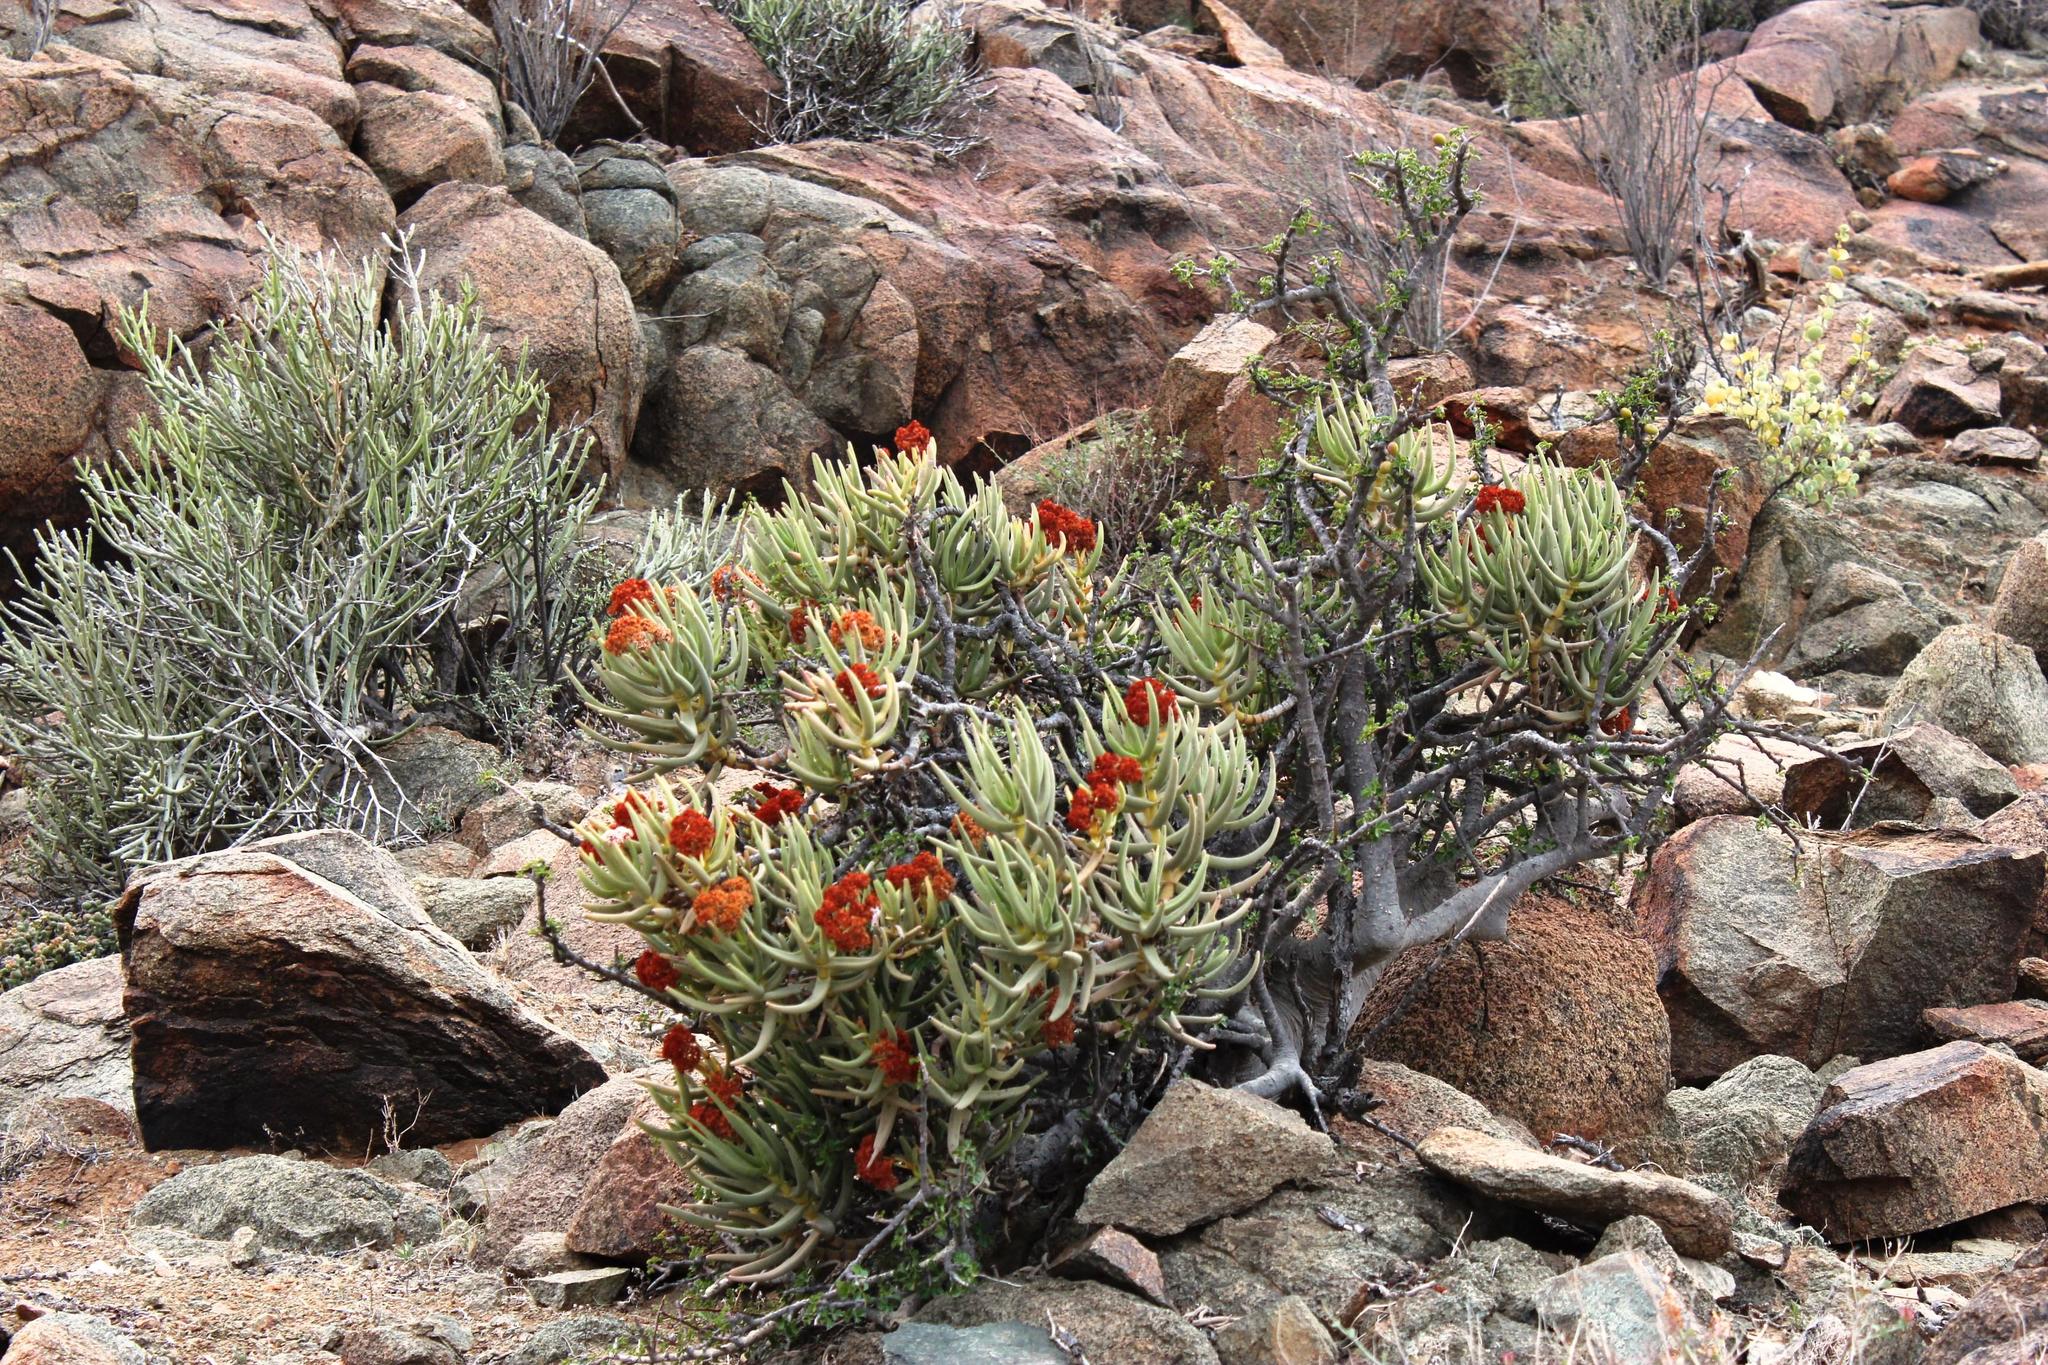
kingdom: Plantae
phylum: Tracheophyta
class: Magnoliopsida
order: Saxifragales
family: Crassulaceae
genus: Crassula
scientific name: Crassula macowaniana
